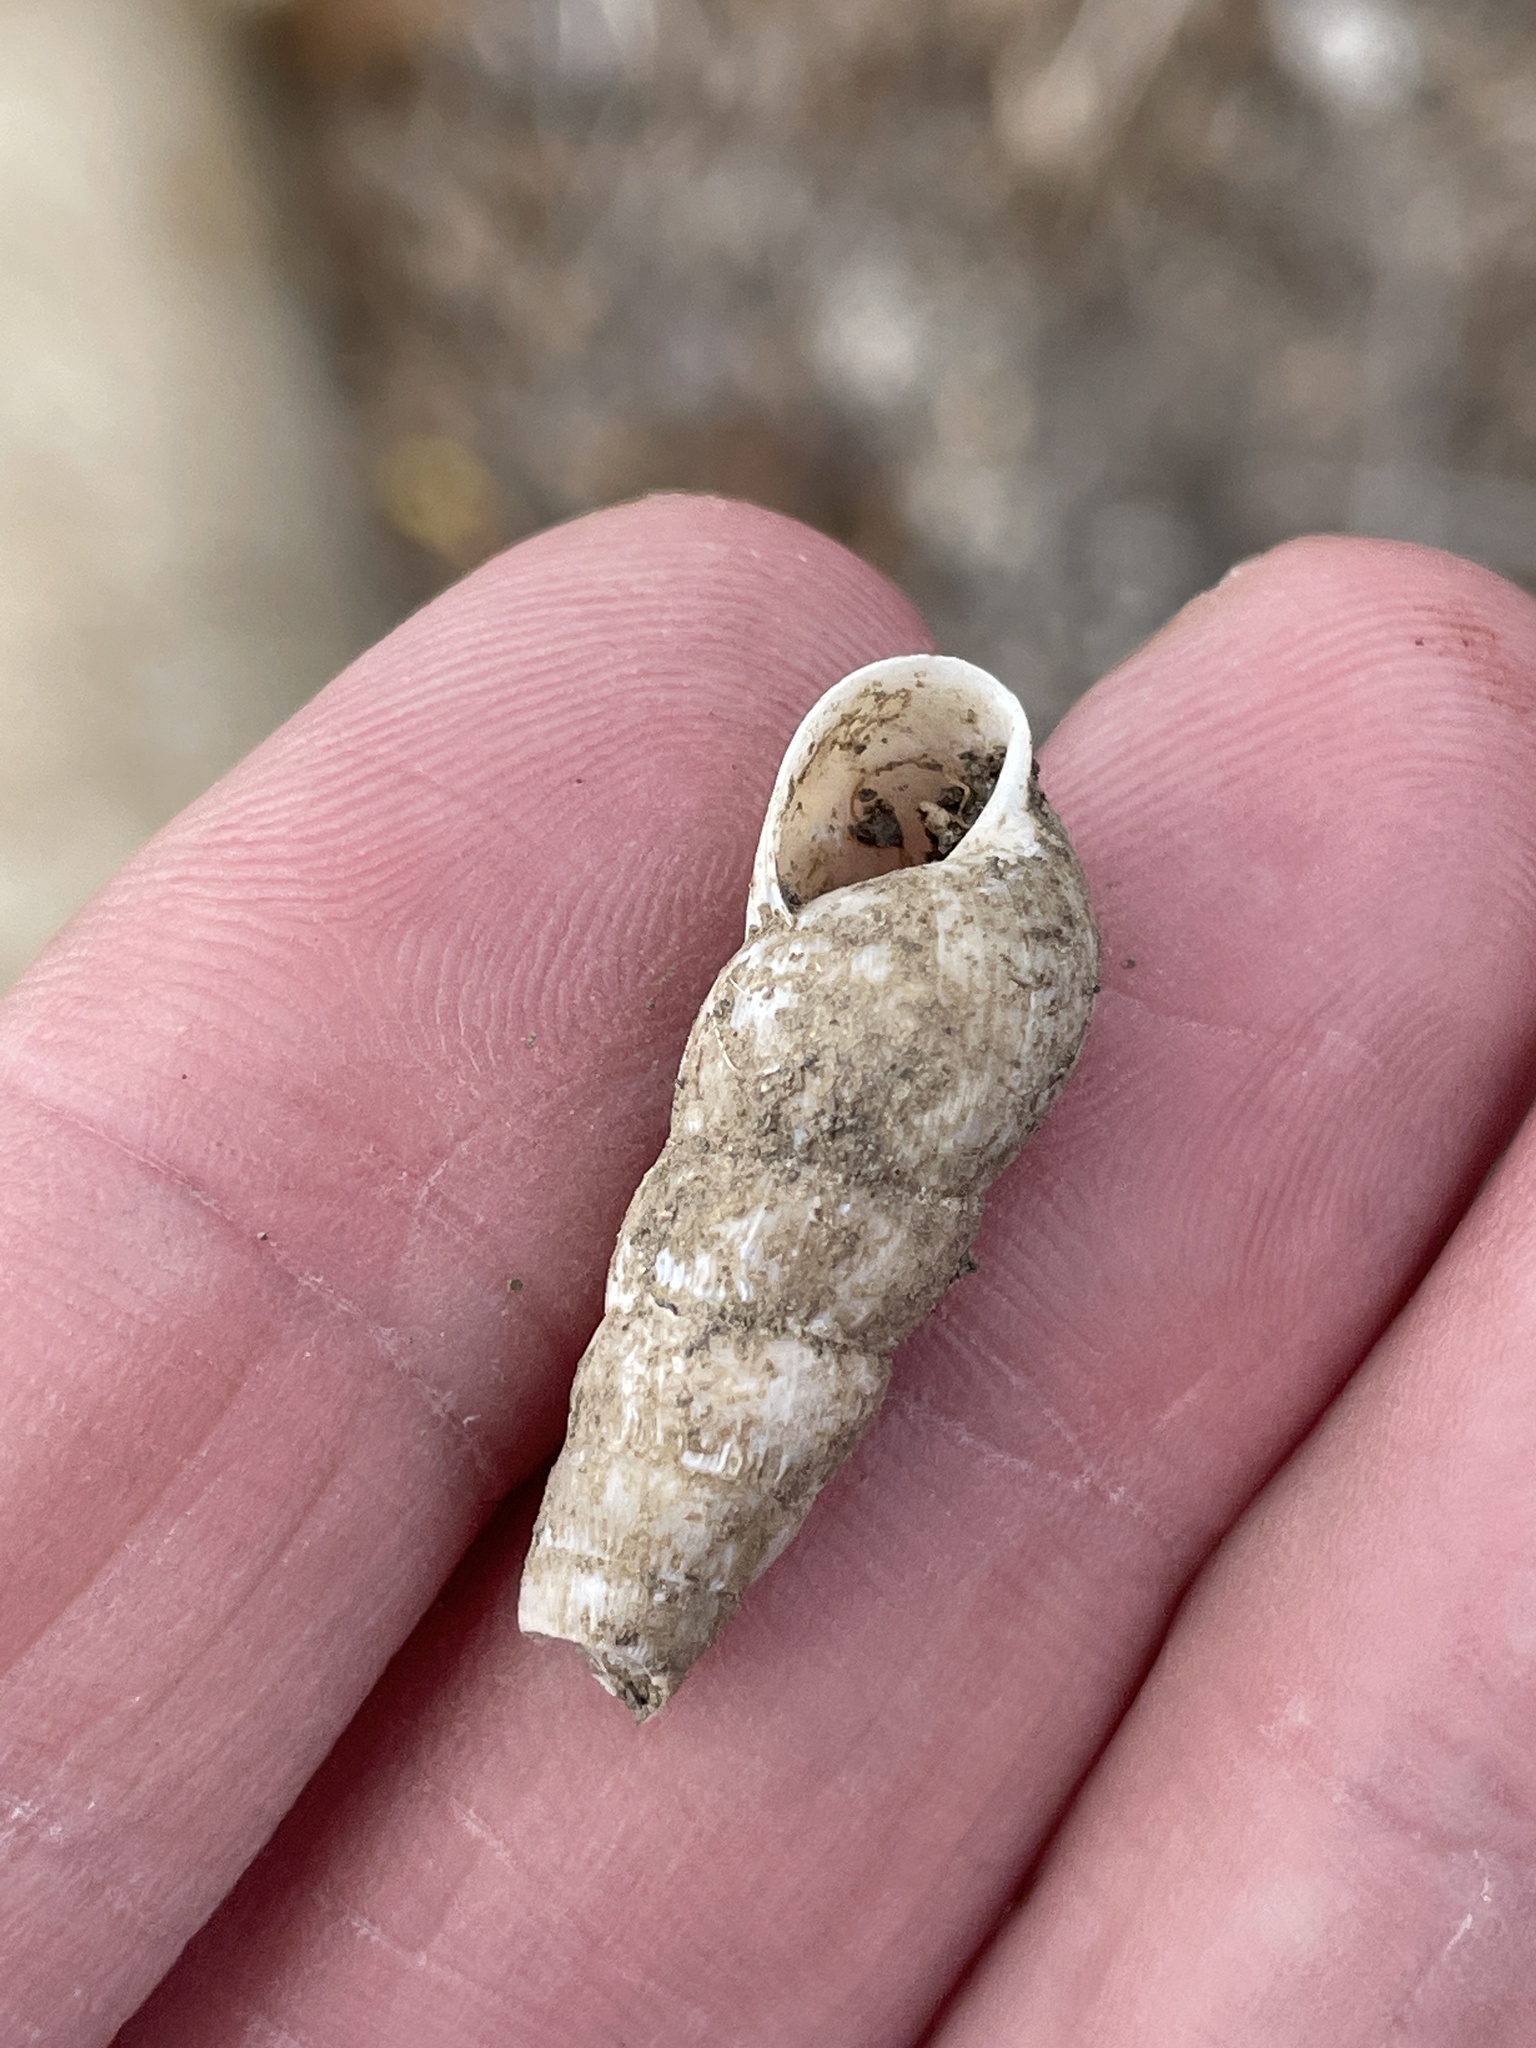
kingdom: Animalia
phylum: Mollusca
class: Gastropoda
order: Stylommatophora
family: Achatinidae
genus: Rumina
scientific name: Rumina decollata
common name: Decollate snail
